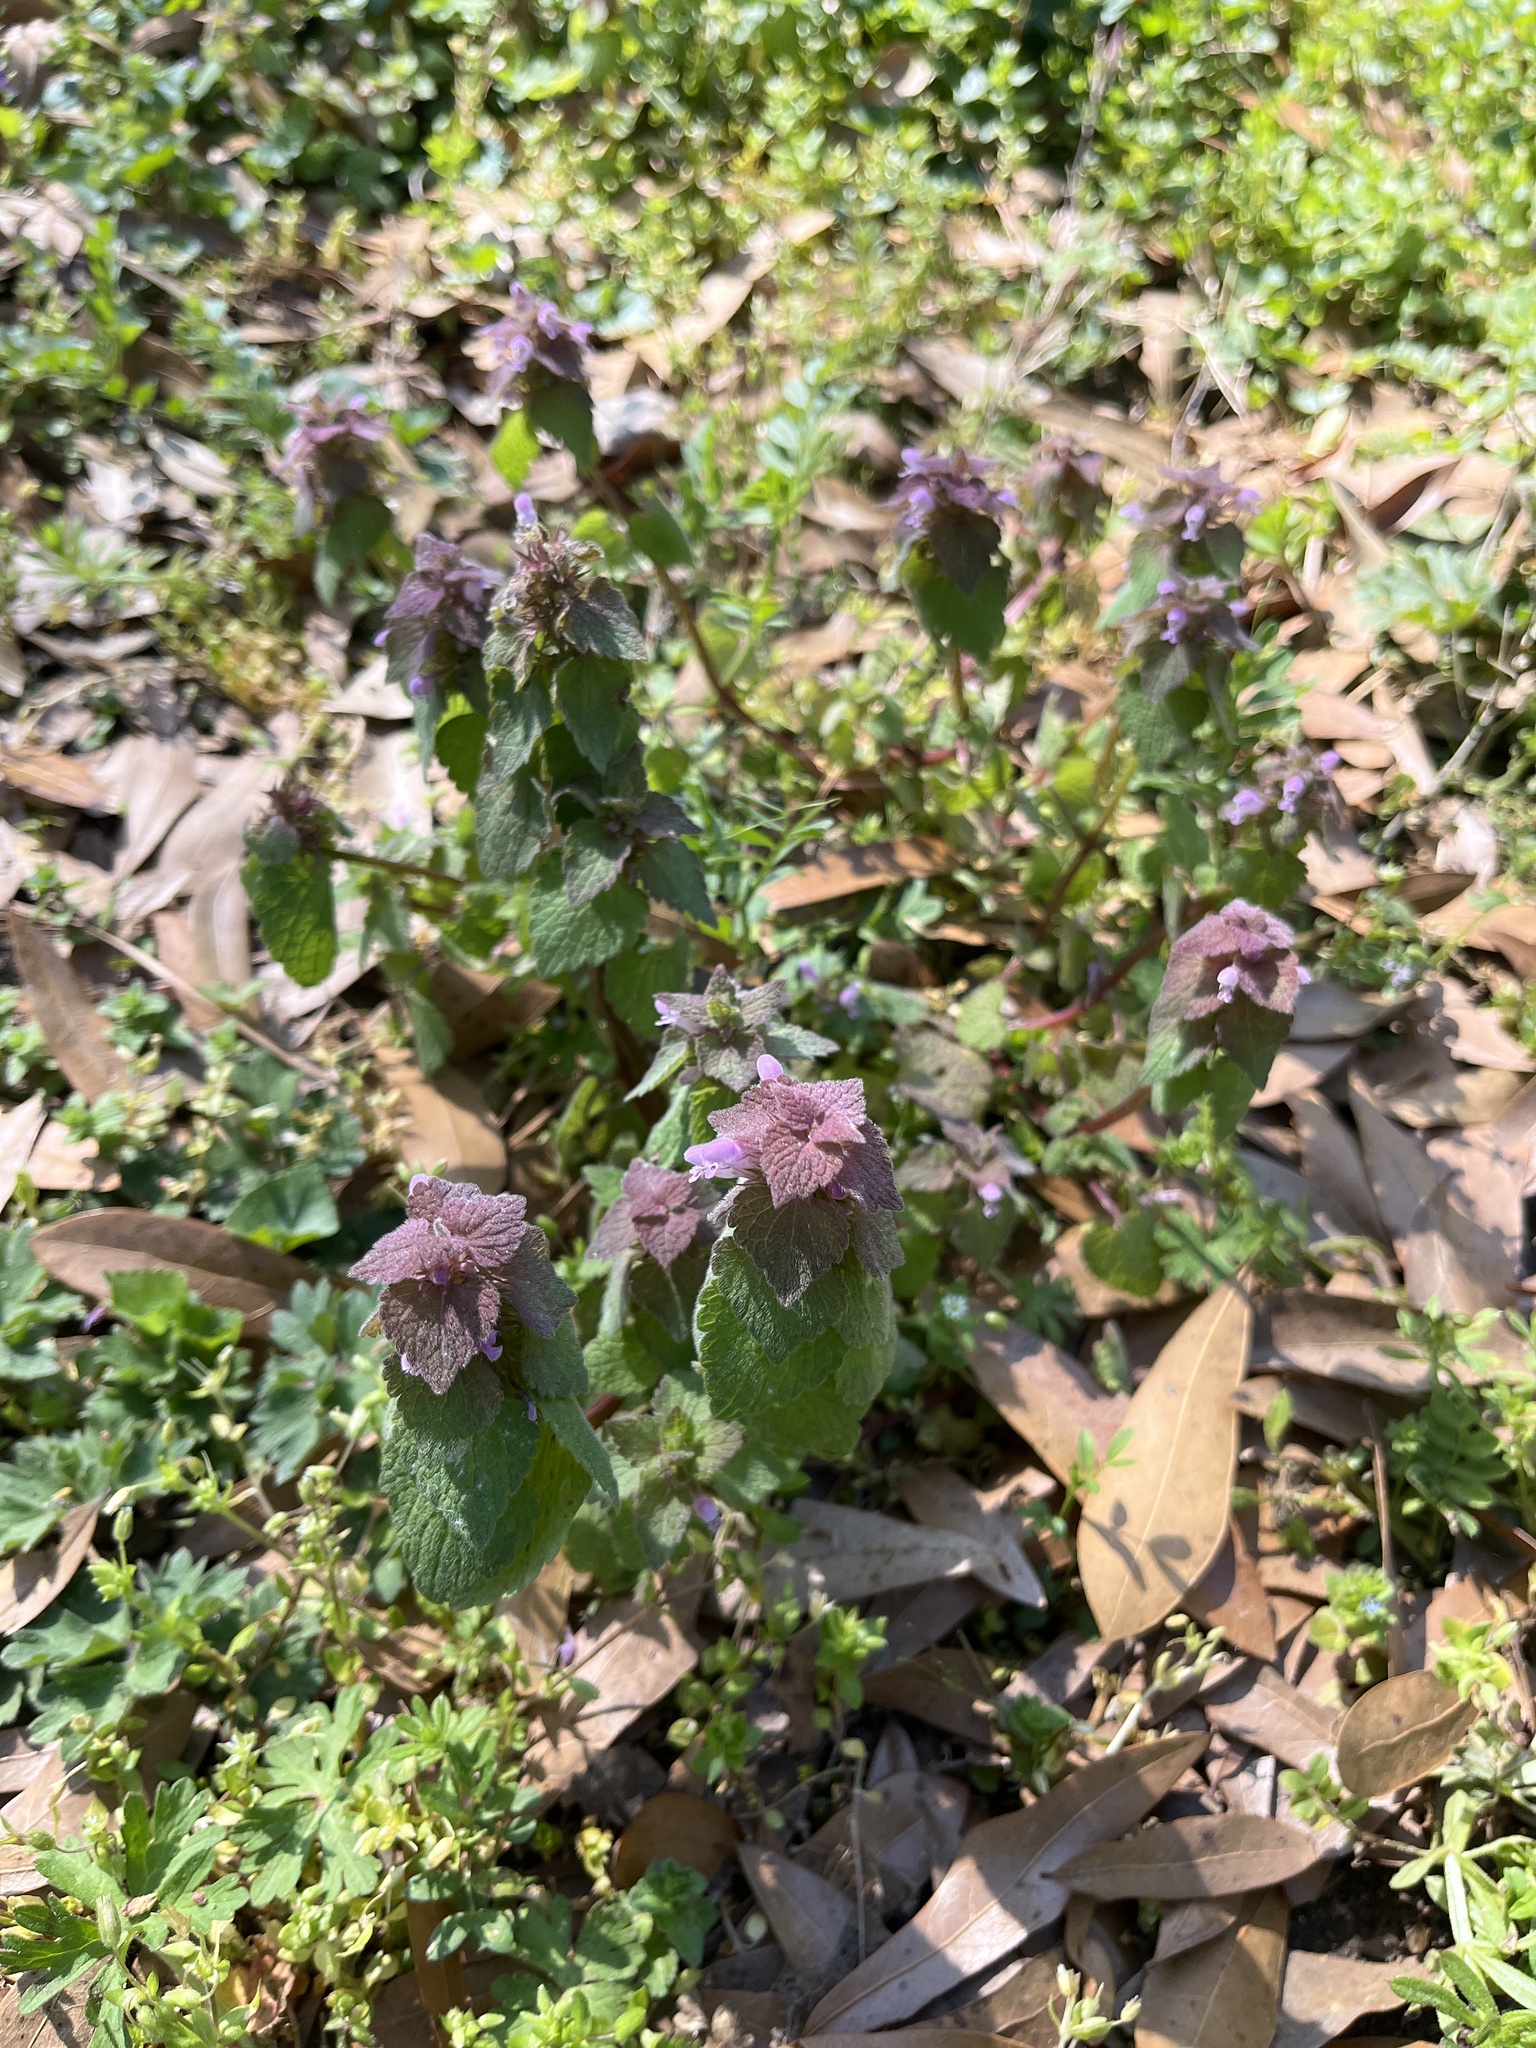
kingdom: Plantae
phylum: Tracheophyta
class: Magnoliopsida
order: Lamiales
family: Lamiaceae
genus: Lamium
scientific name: Lamium purpureum
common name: Red dead-nettle
